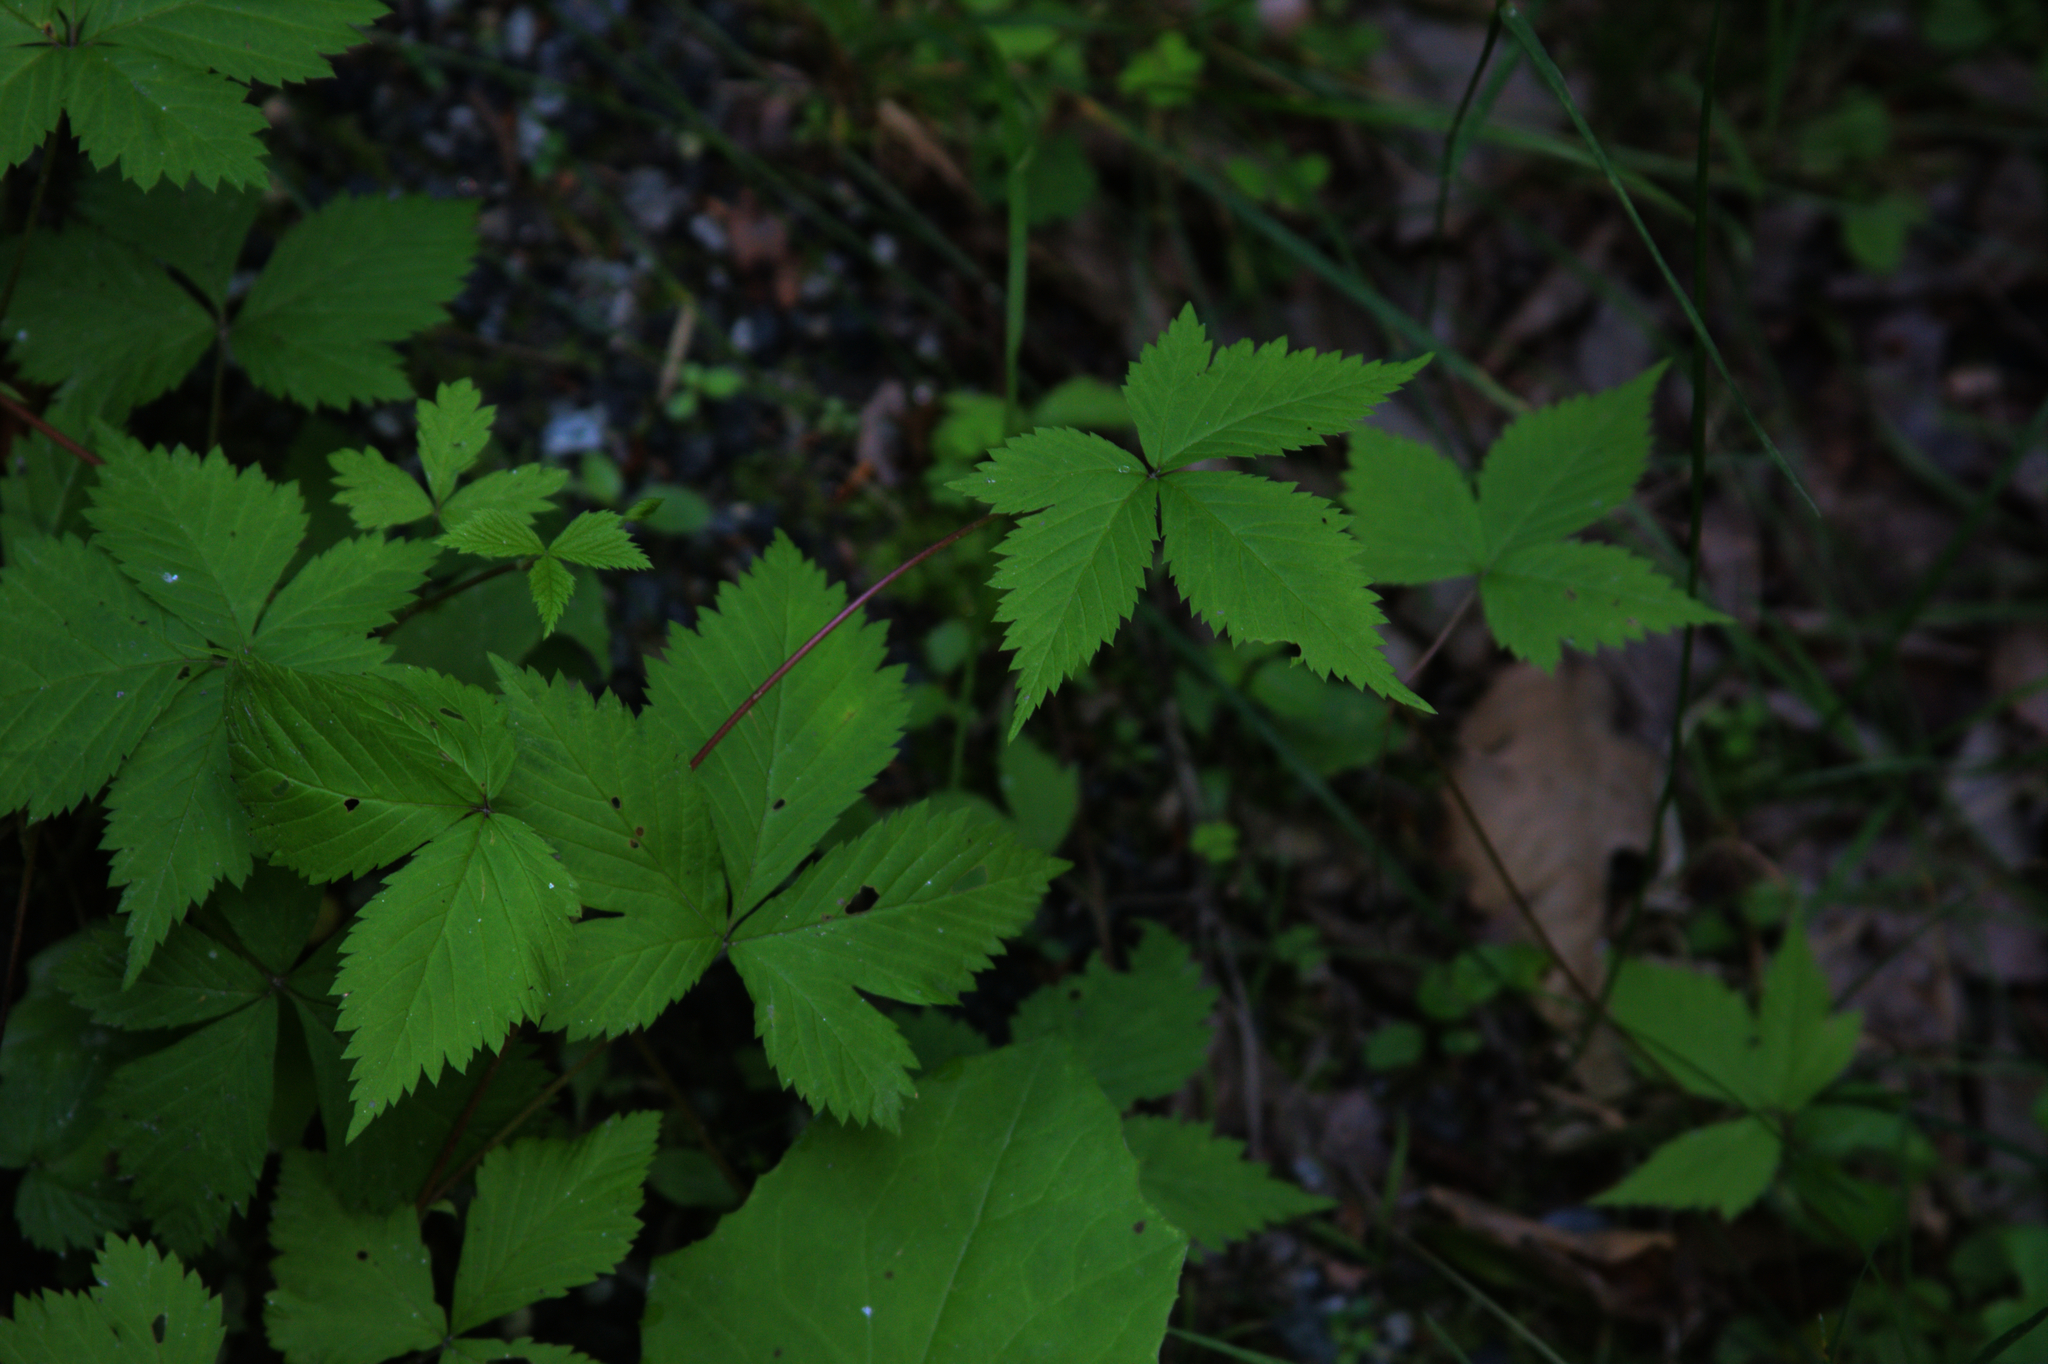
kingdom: Plantae
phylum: Tracheophyta
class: Magnoliopsida
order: Rosales
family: Rosaceae
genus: Rubus
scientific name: Rubus pubescens
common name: Dwarf raspberry
